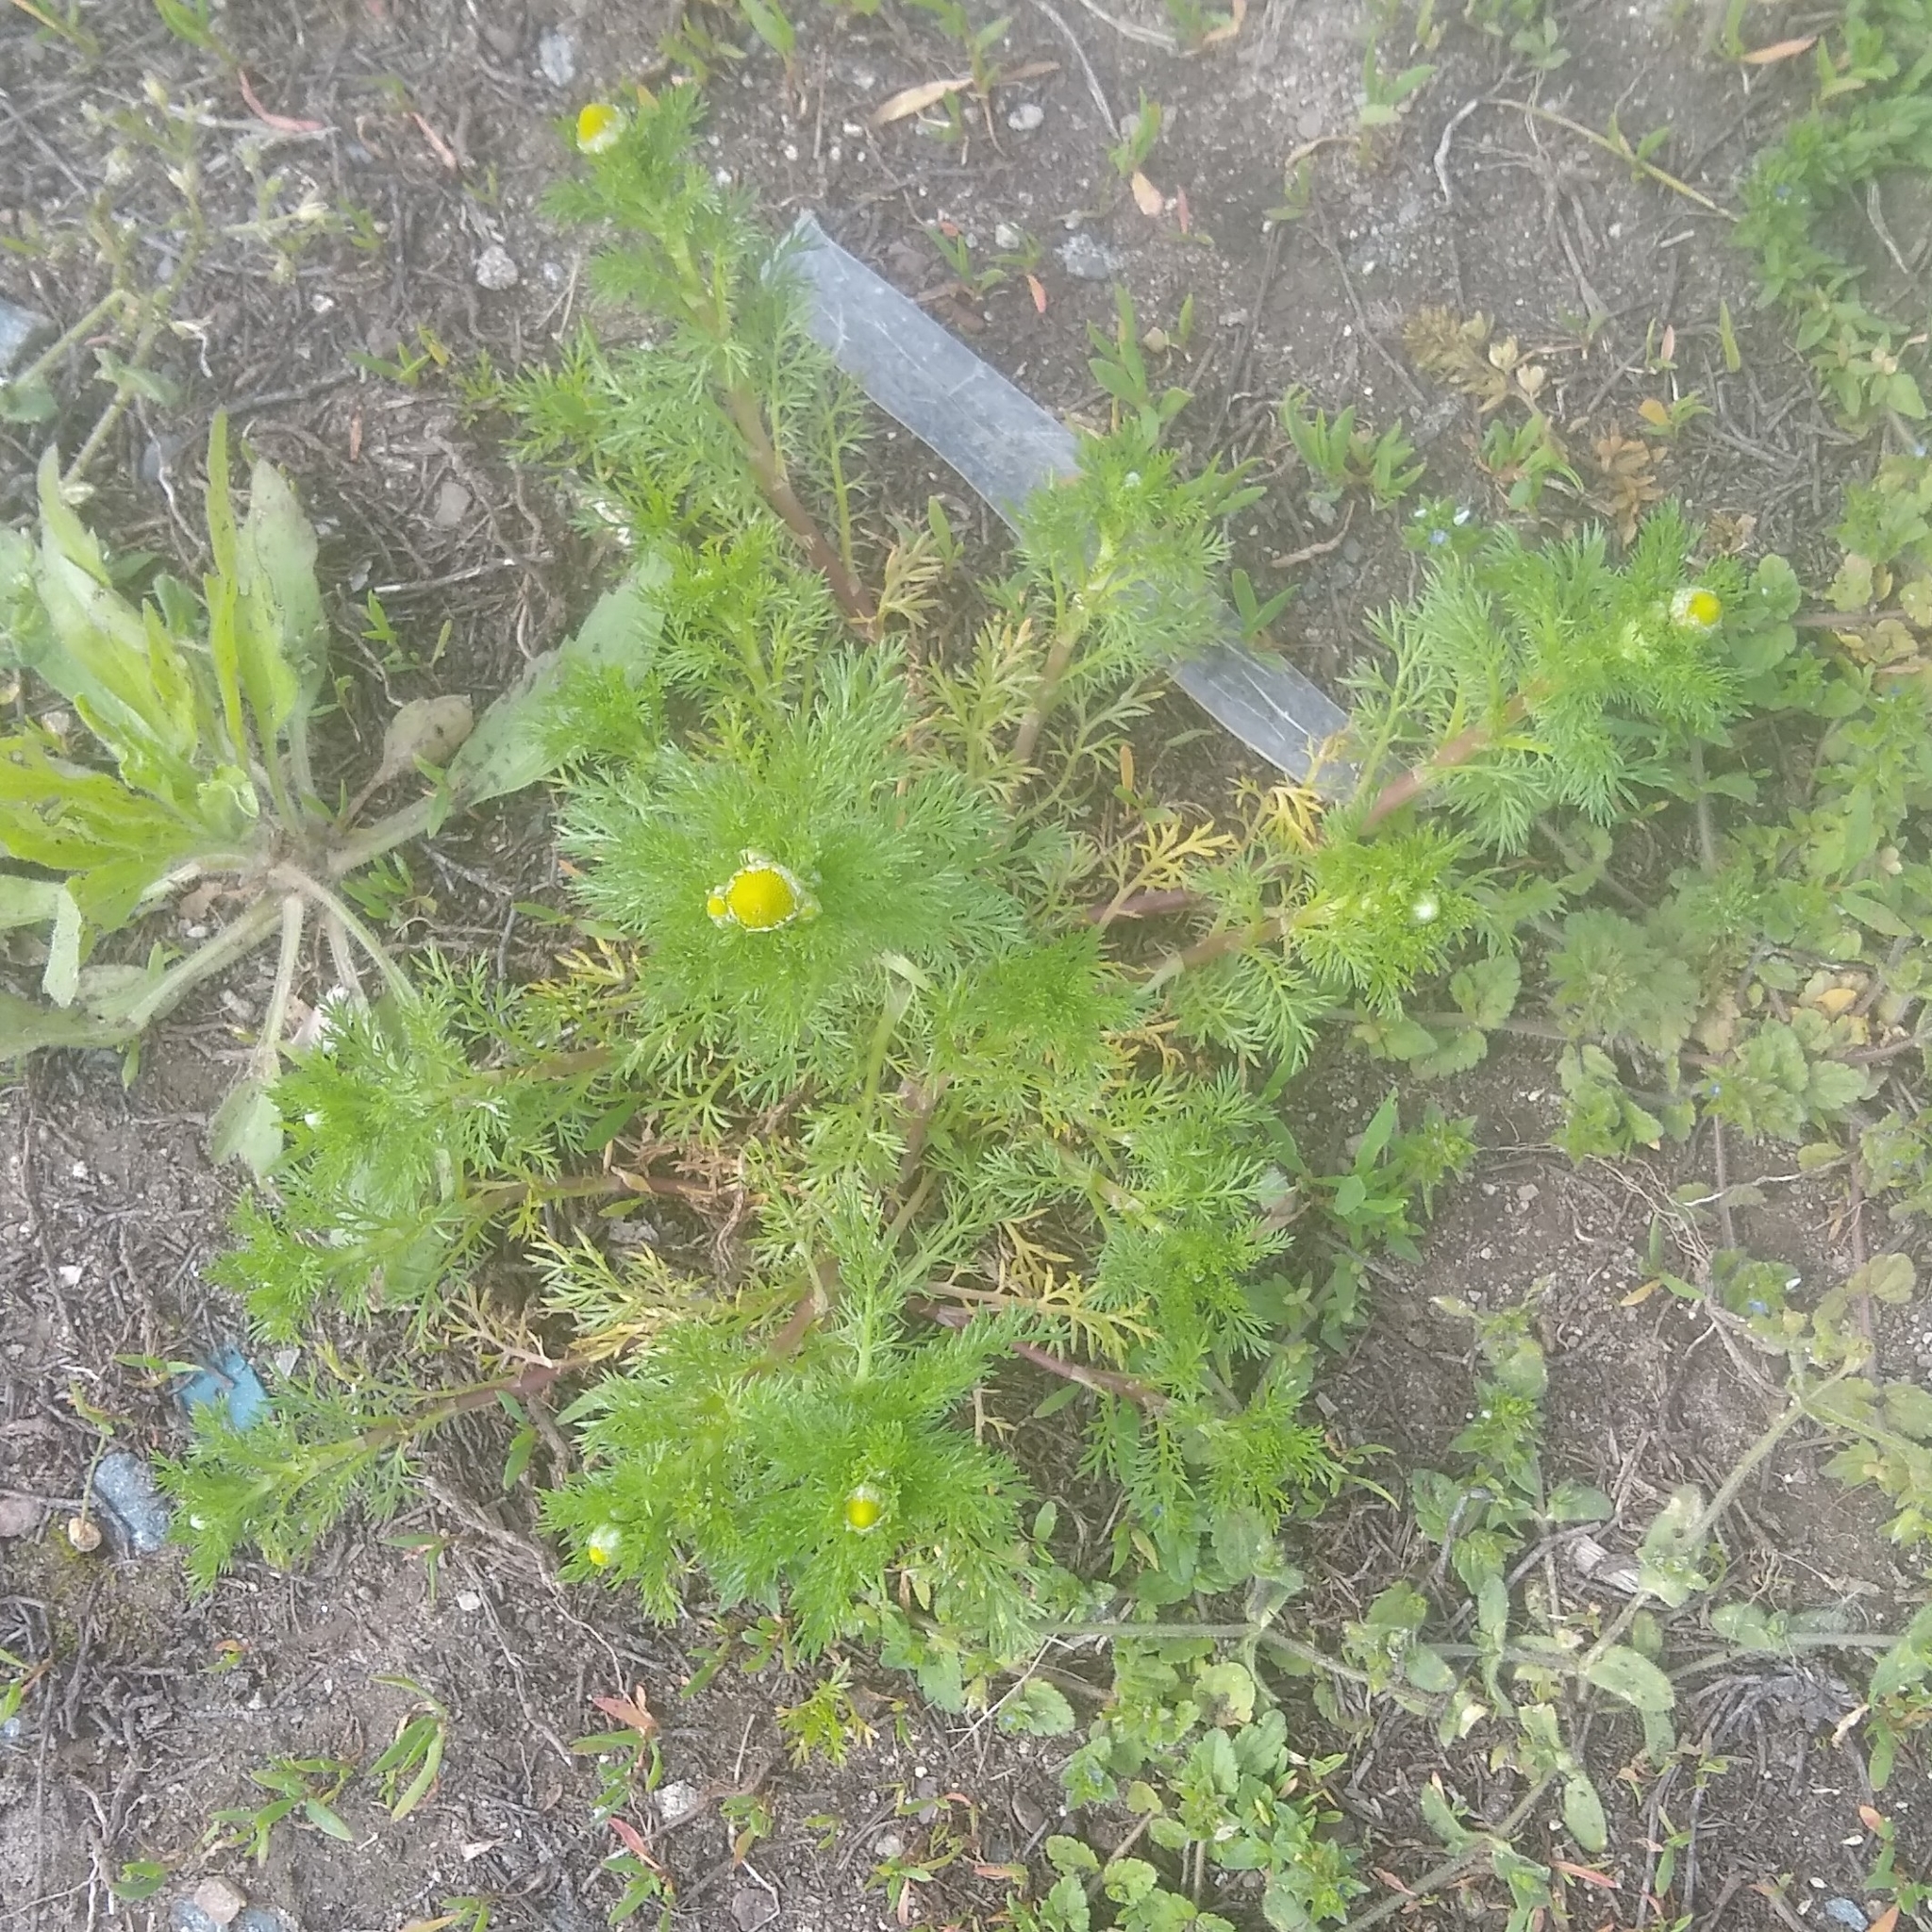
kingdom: Plantae
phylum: Tracheophyta
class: Magnoliopsida
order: Asterales
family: Asteraceae
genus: Matricaria
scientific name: Matricaria discoidea
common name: Disc mayweed
